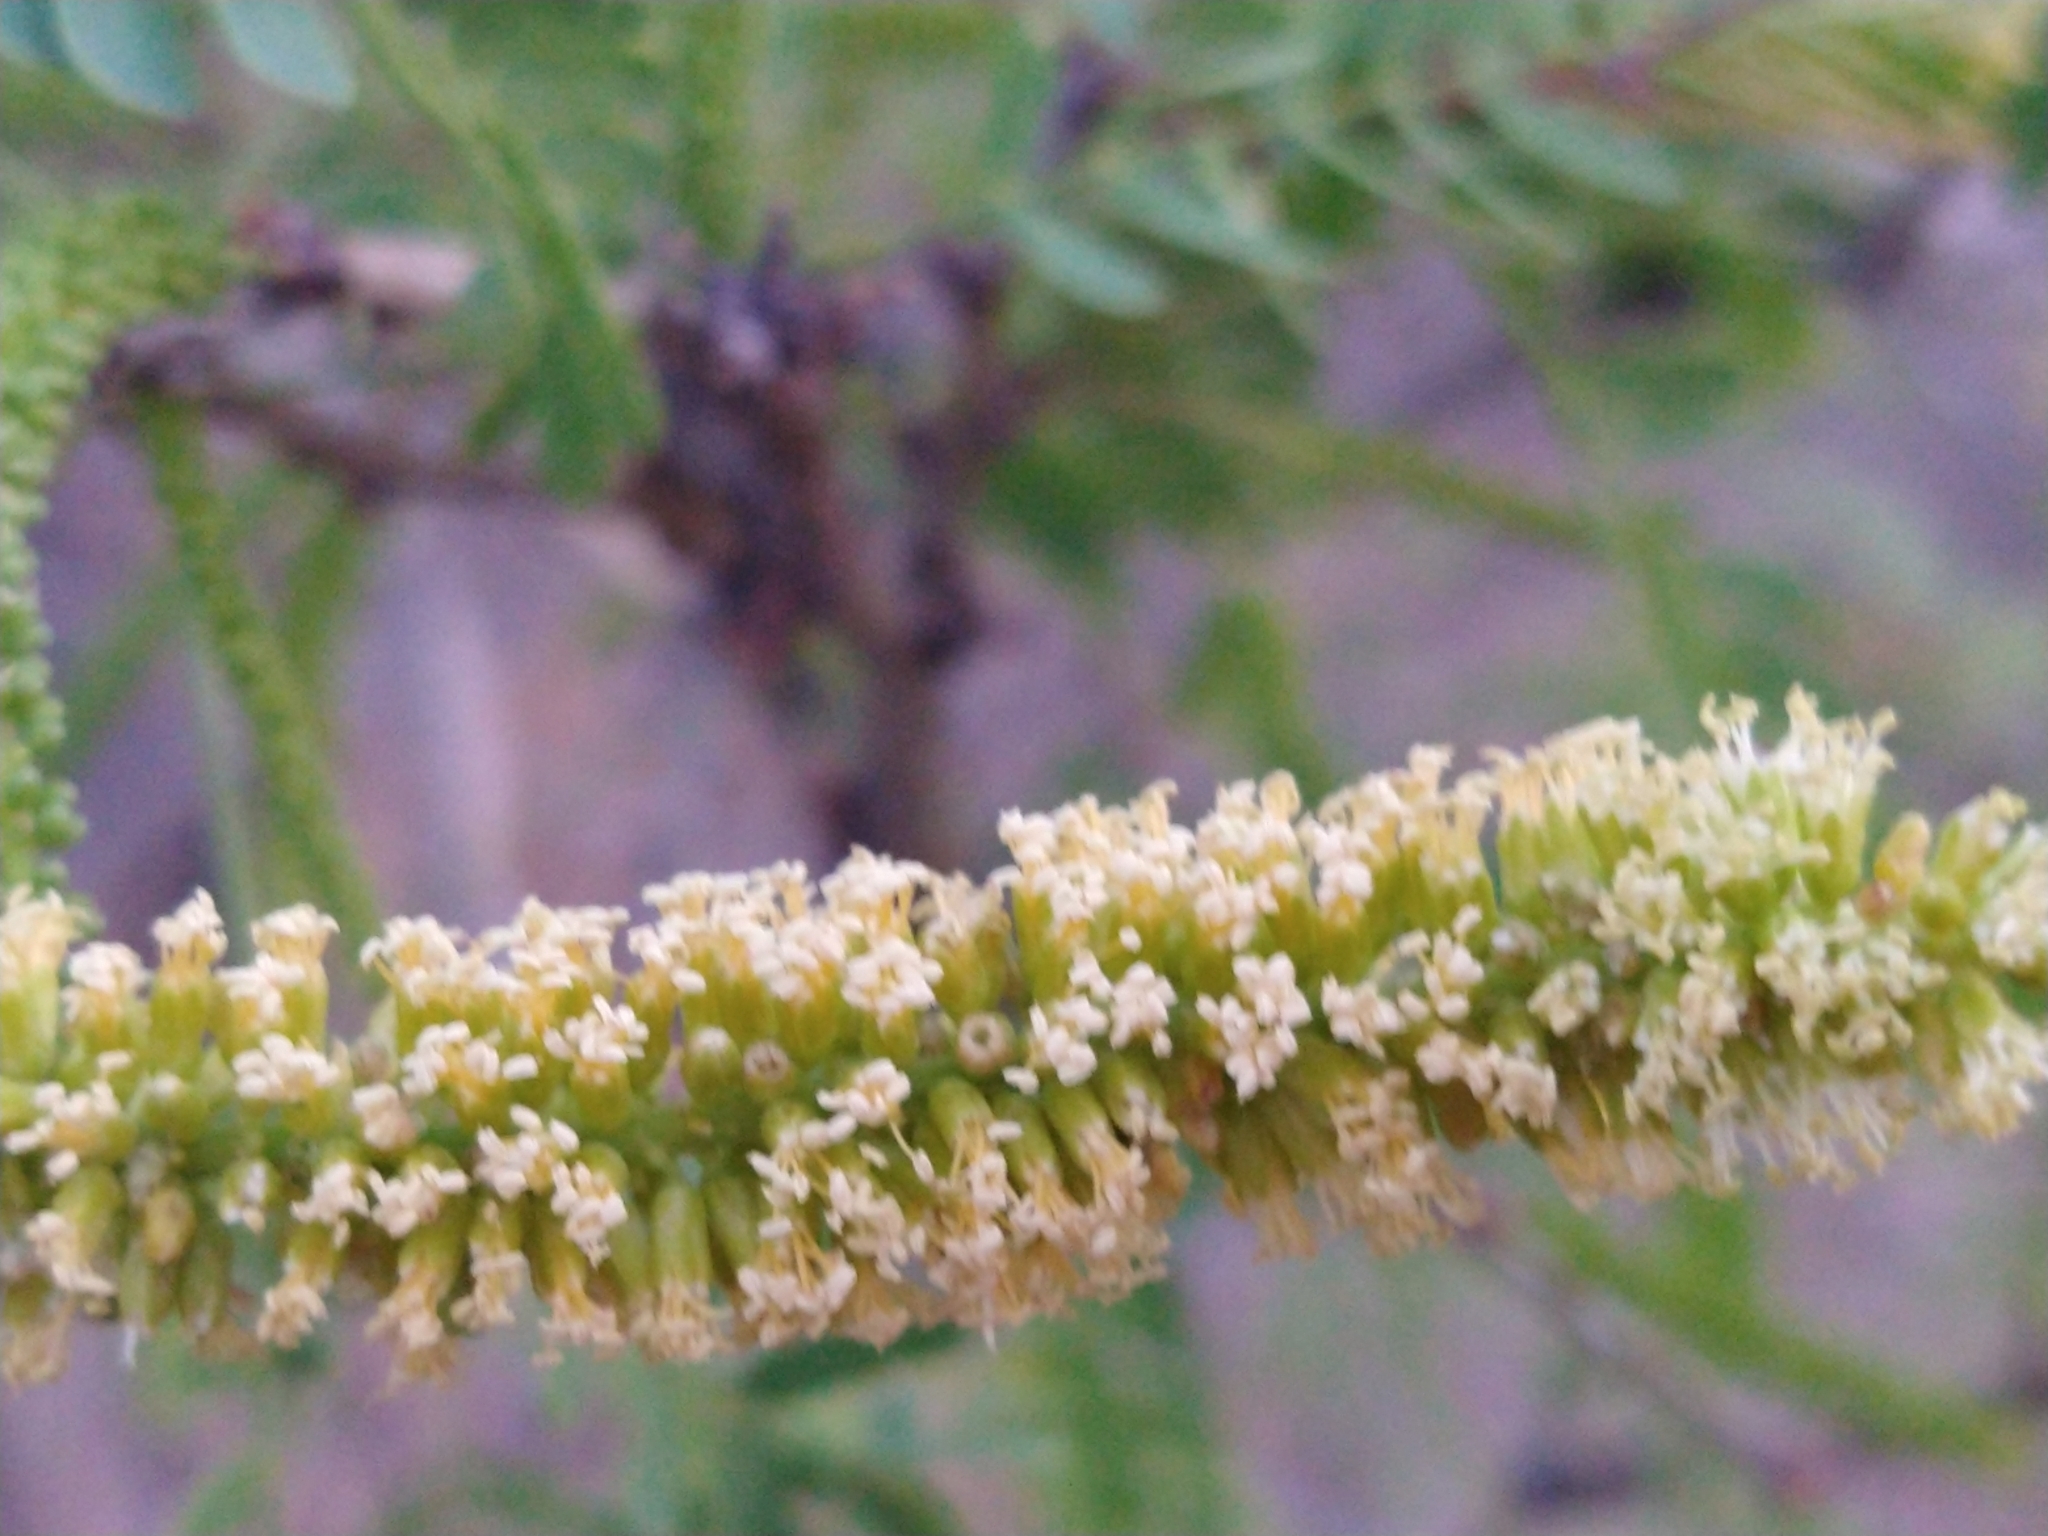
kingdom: Plantae
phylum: Tracheophyta
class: Magnoliopsida
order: Fabales
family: Fabaceae
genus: Prosopis
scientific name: Prosopis articulata
